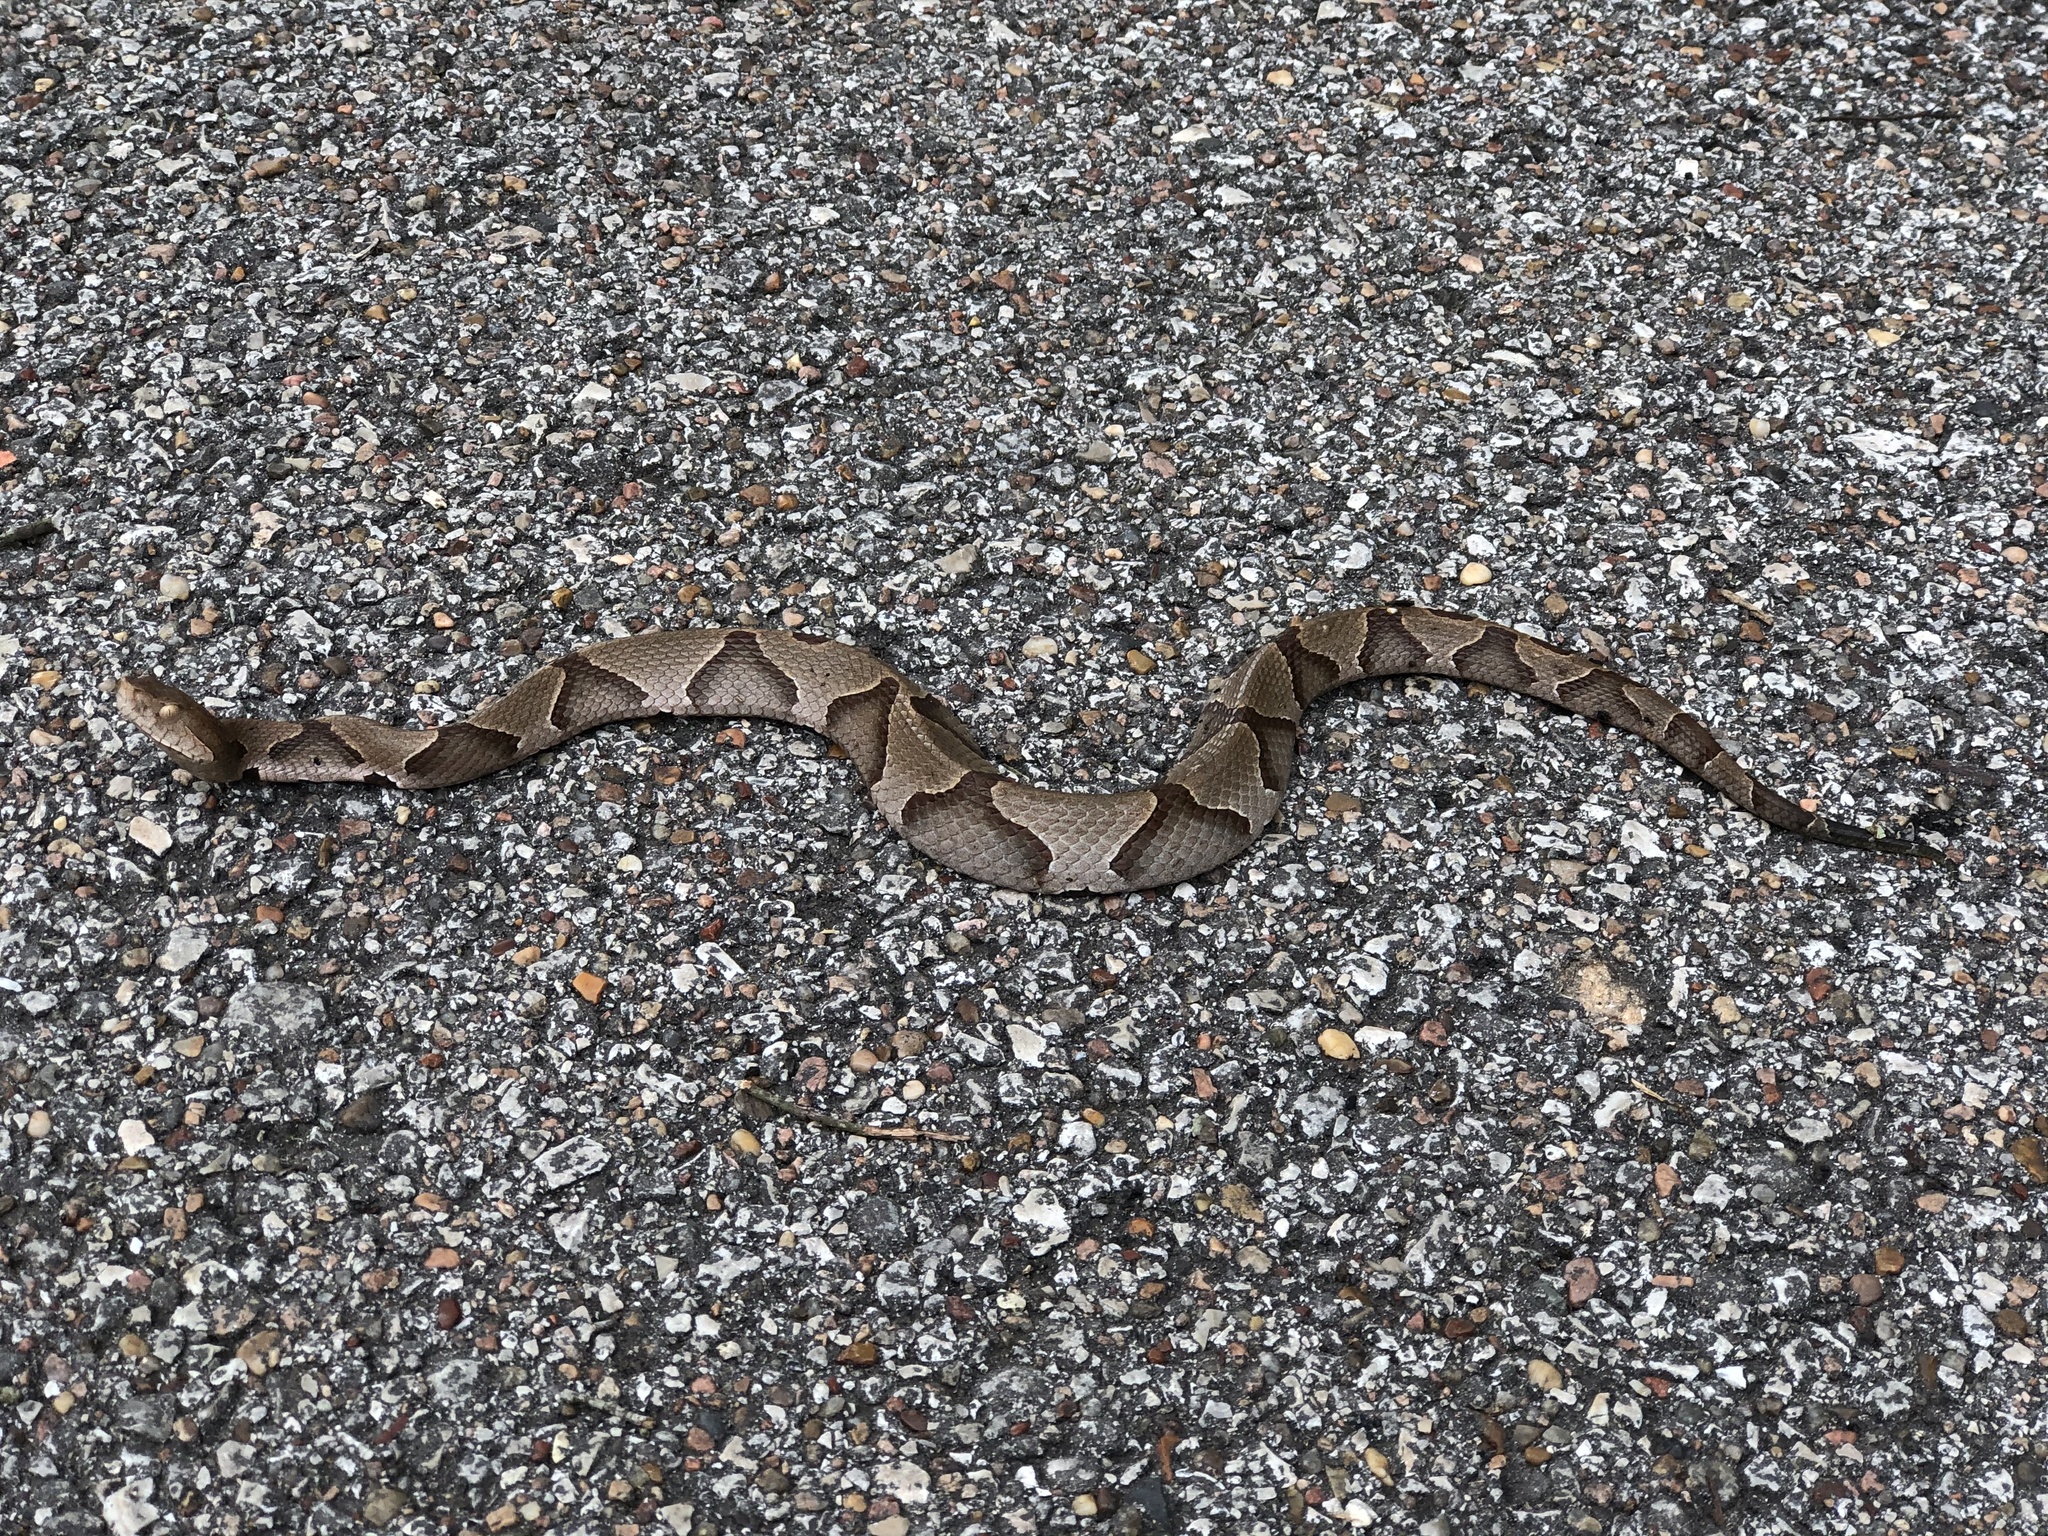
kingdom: Animalia
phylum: Chordata
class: Squamata
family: Viperidae
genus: Agkistrodon
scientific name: Agkistrodon contortrix
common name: Northern copperhead
